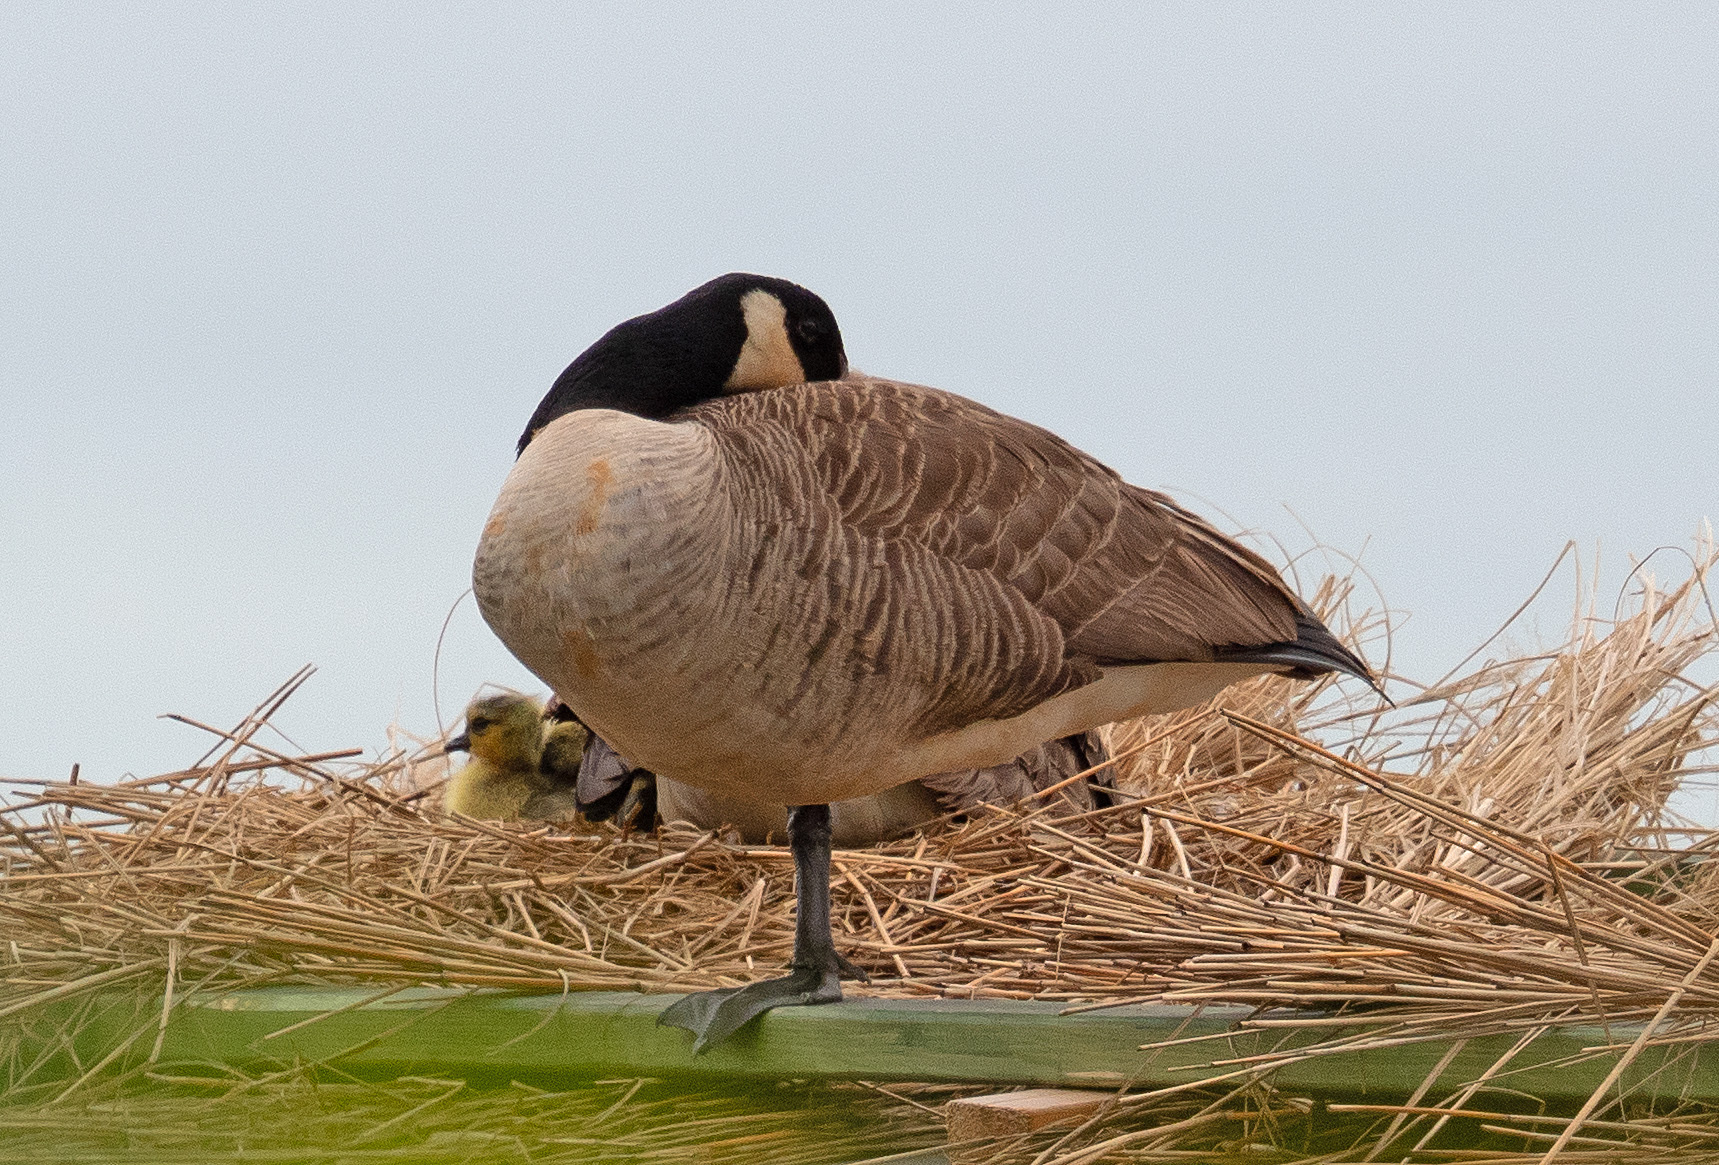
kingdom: Animalia
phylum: Chordata
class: Aves
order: Anseriformes
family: Anatidae
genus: Branta
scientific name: Branta canadensis
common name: Canada goose
